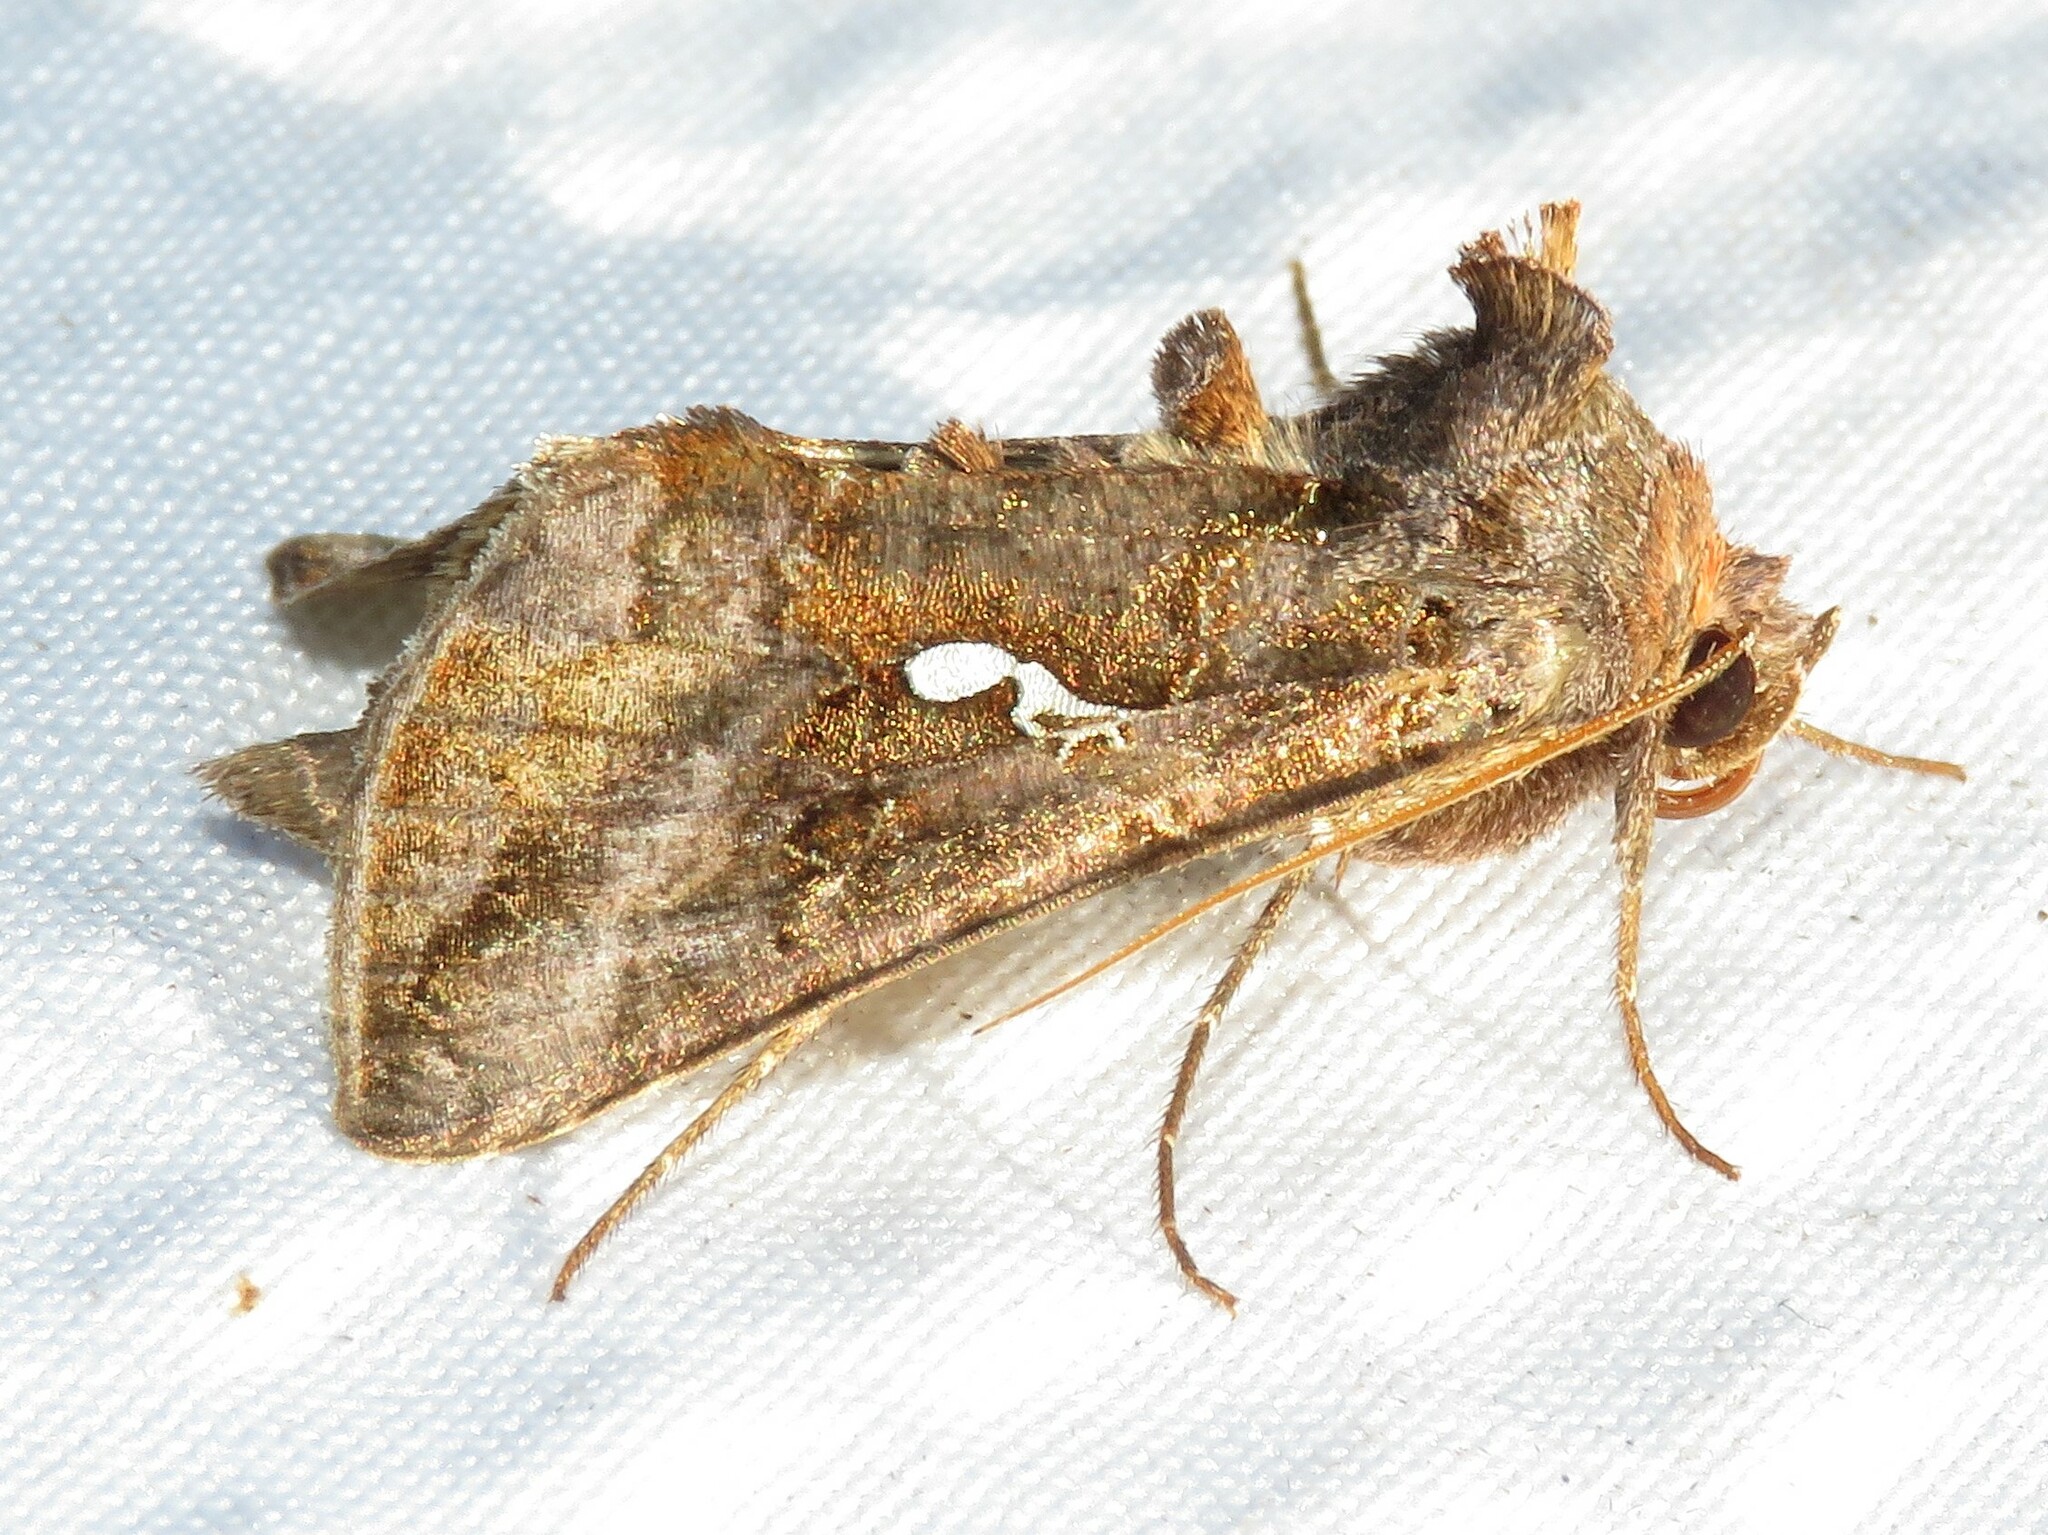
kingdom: Animalia
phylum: Arthropoda
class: Insecta
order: Lepidoptera
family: Noctuidae
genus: Autographa
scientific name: Autographa precationis
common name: Common looper moth
